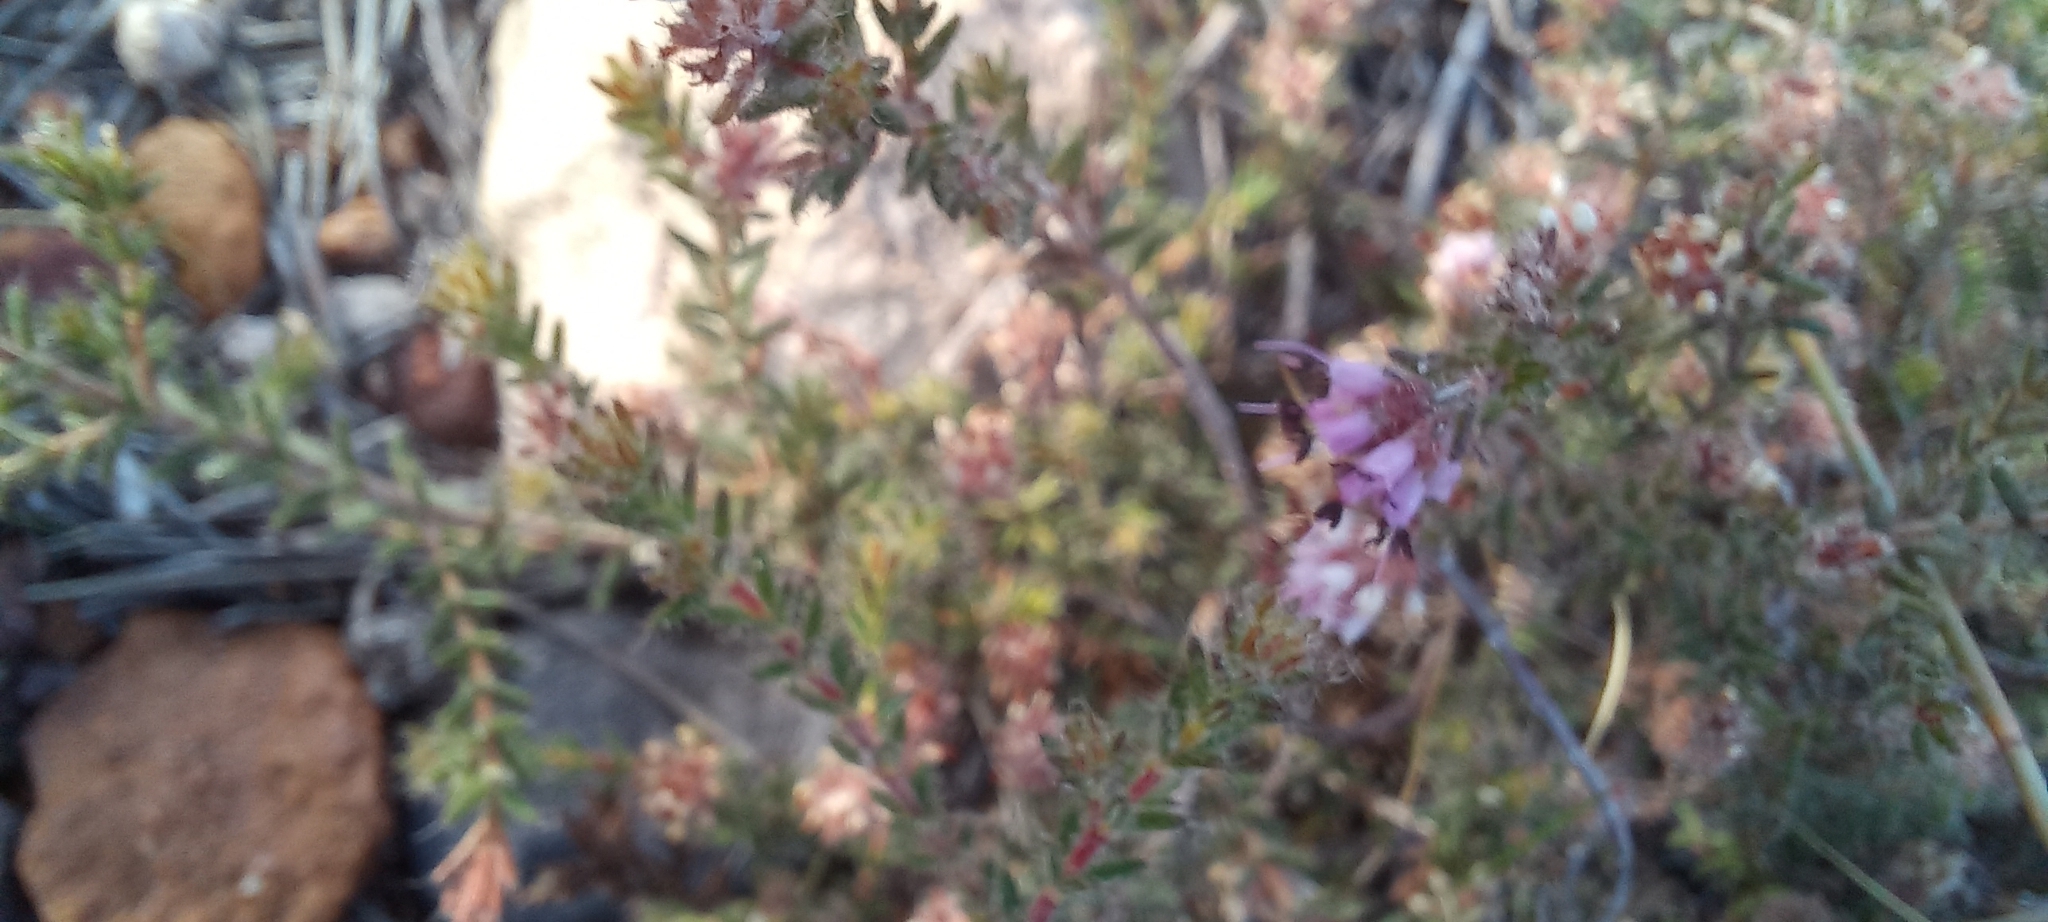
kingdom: Plantae
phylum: Tracheophyta
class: Magnoliopsida
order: Ericales
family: Ericaceae
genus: Erica
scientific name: Erica ericoides
